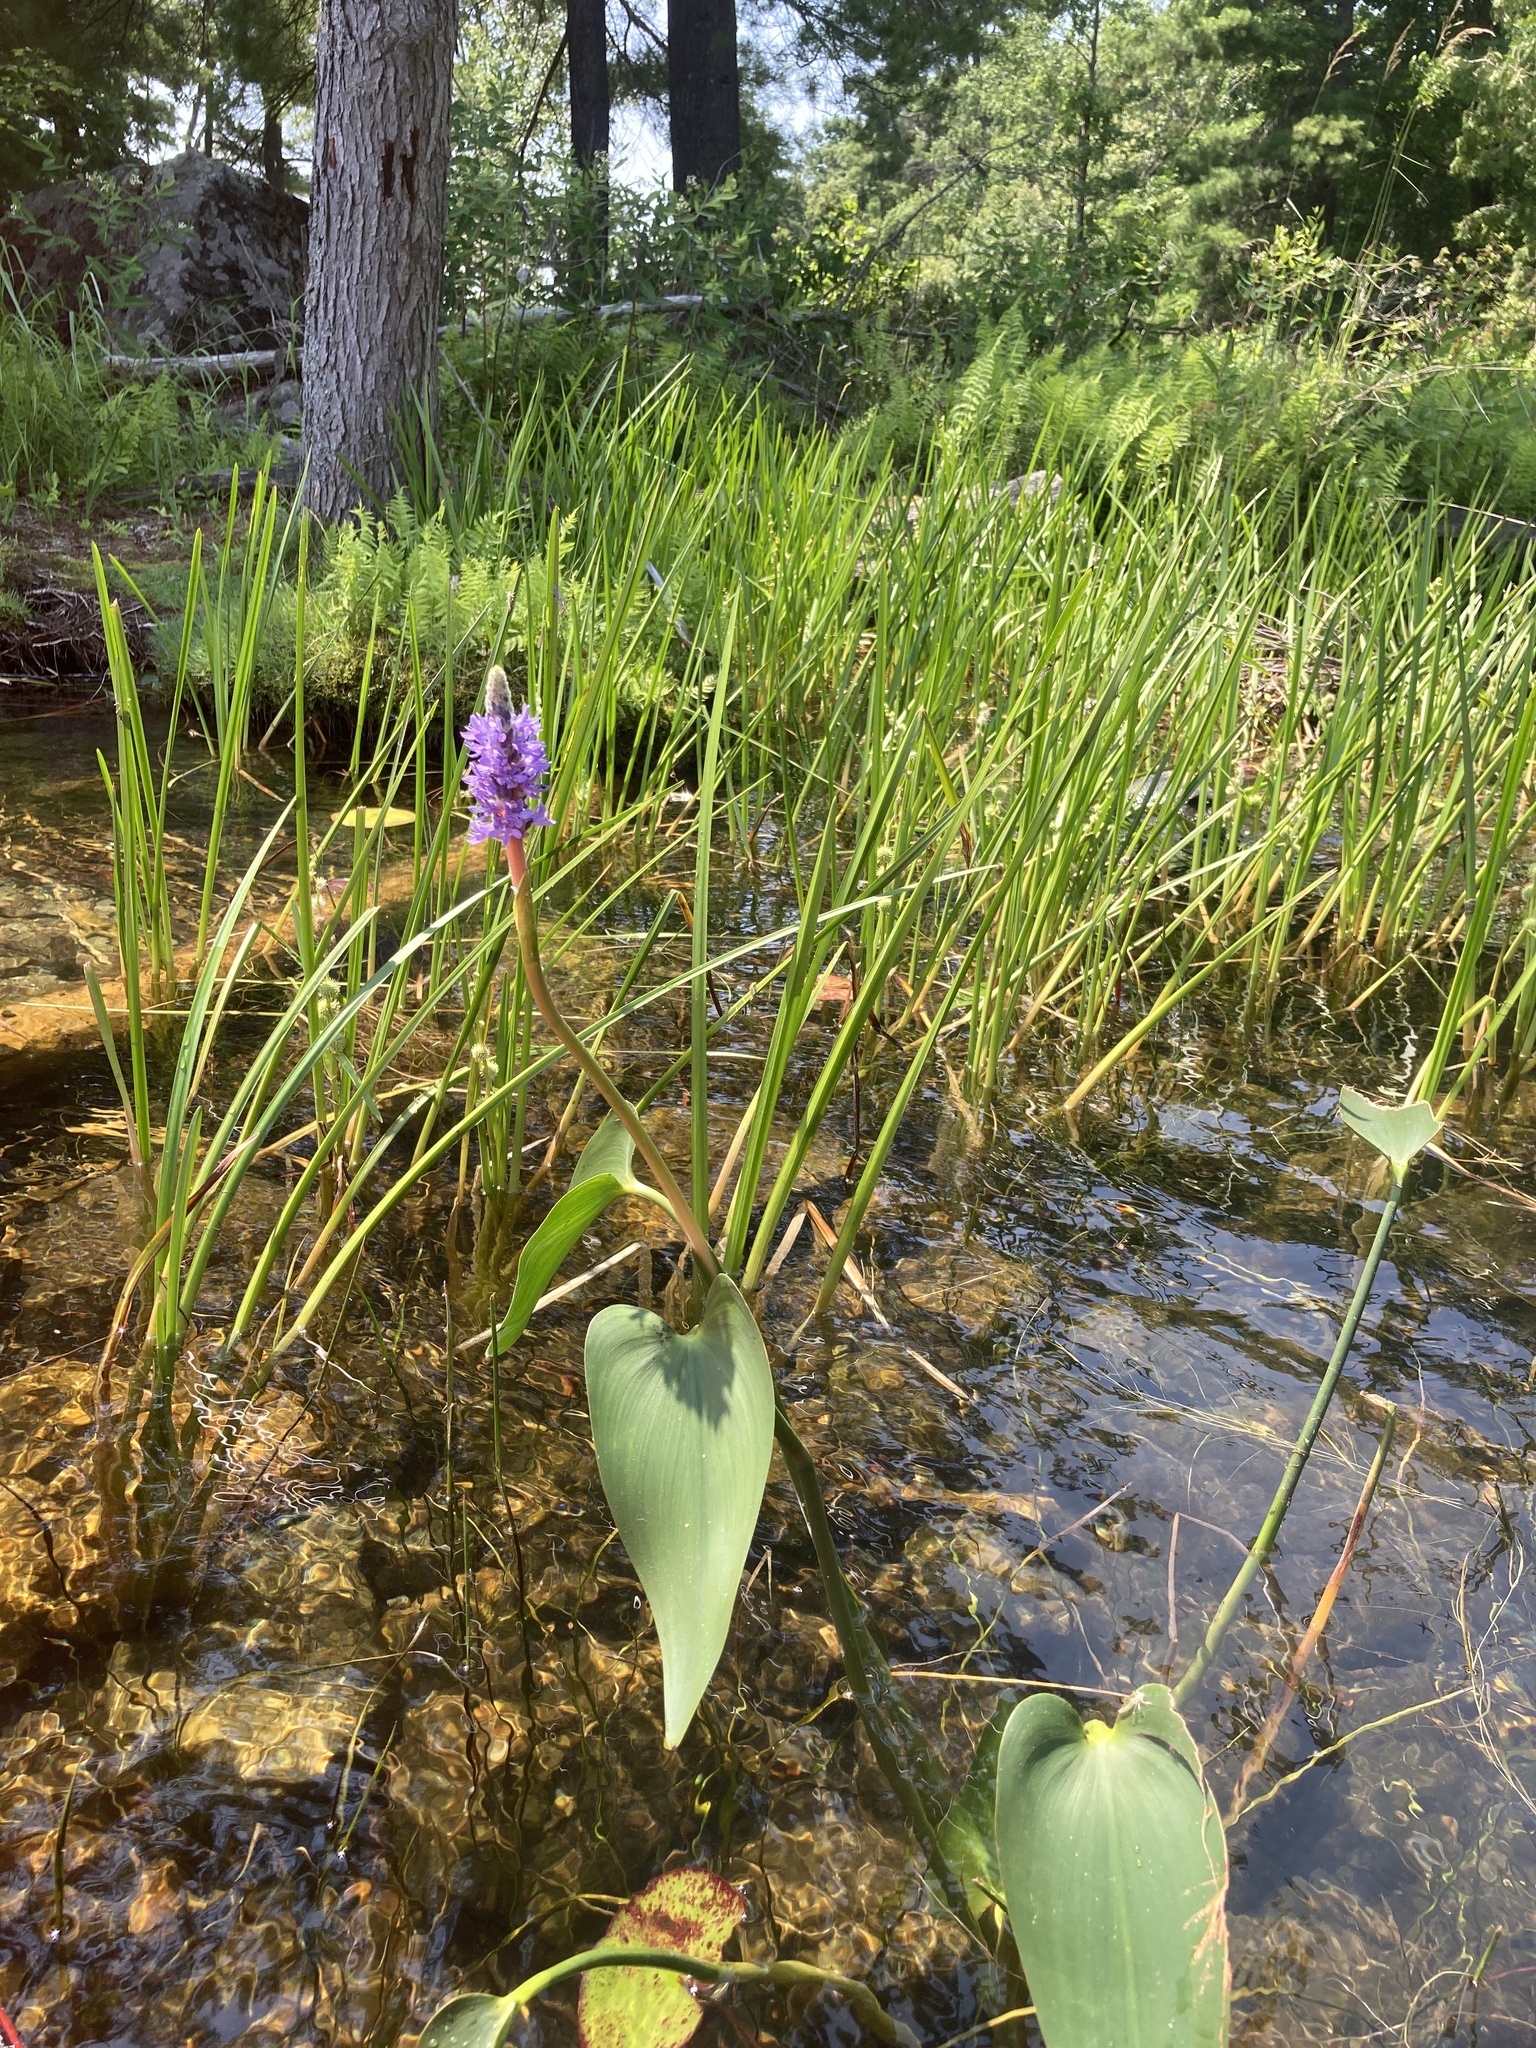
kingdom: Plantae
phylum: Tracheophyta
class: Liliopsida
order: Commelinales
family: Pontederiaceae
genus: Pontederia
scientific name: Pontederia cordata
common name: Pickerelweed
